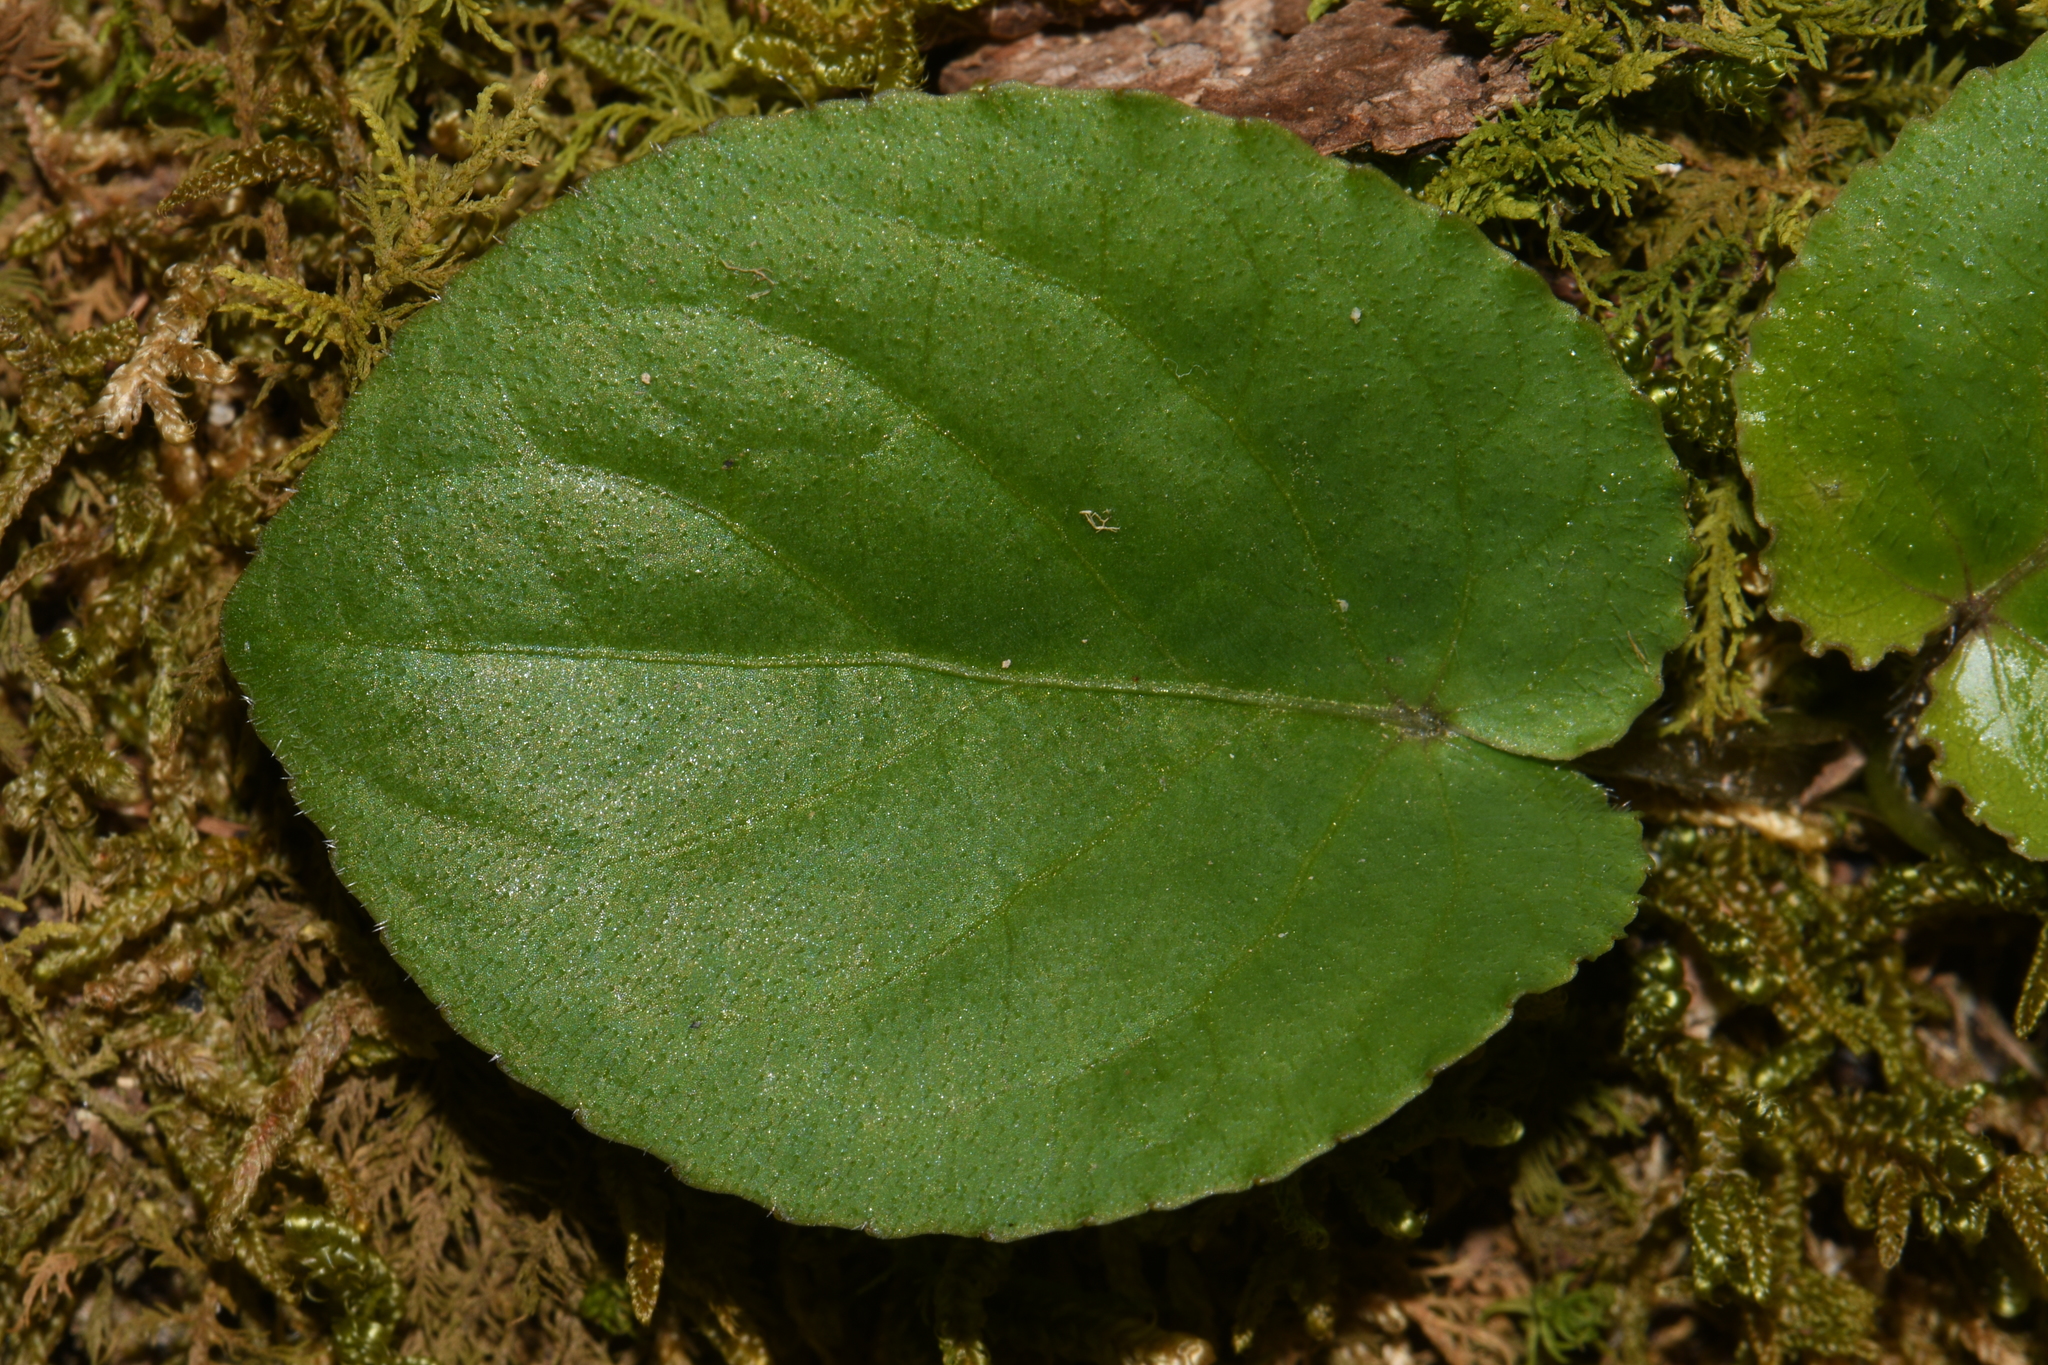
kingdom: Plantae
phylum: Tracheophyta
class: Magnoliopsida
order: Malpighiales
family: Violaceae
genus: Viola
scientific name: Viola rotundifolia
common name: Early yellow violet
